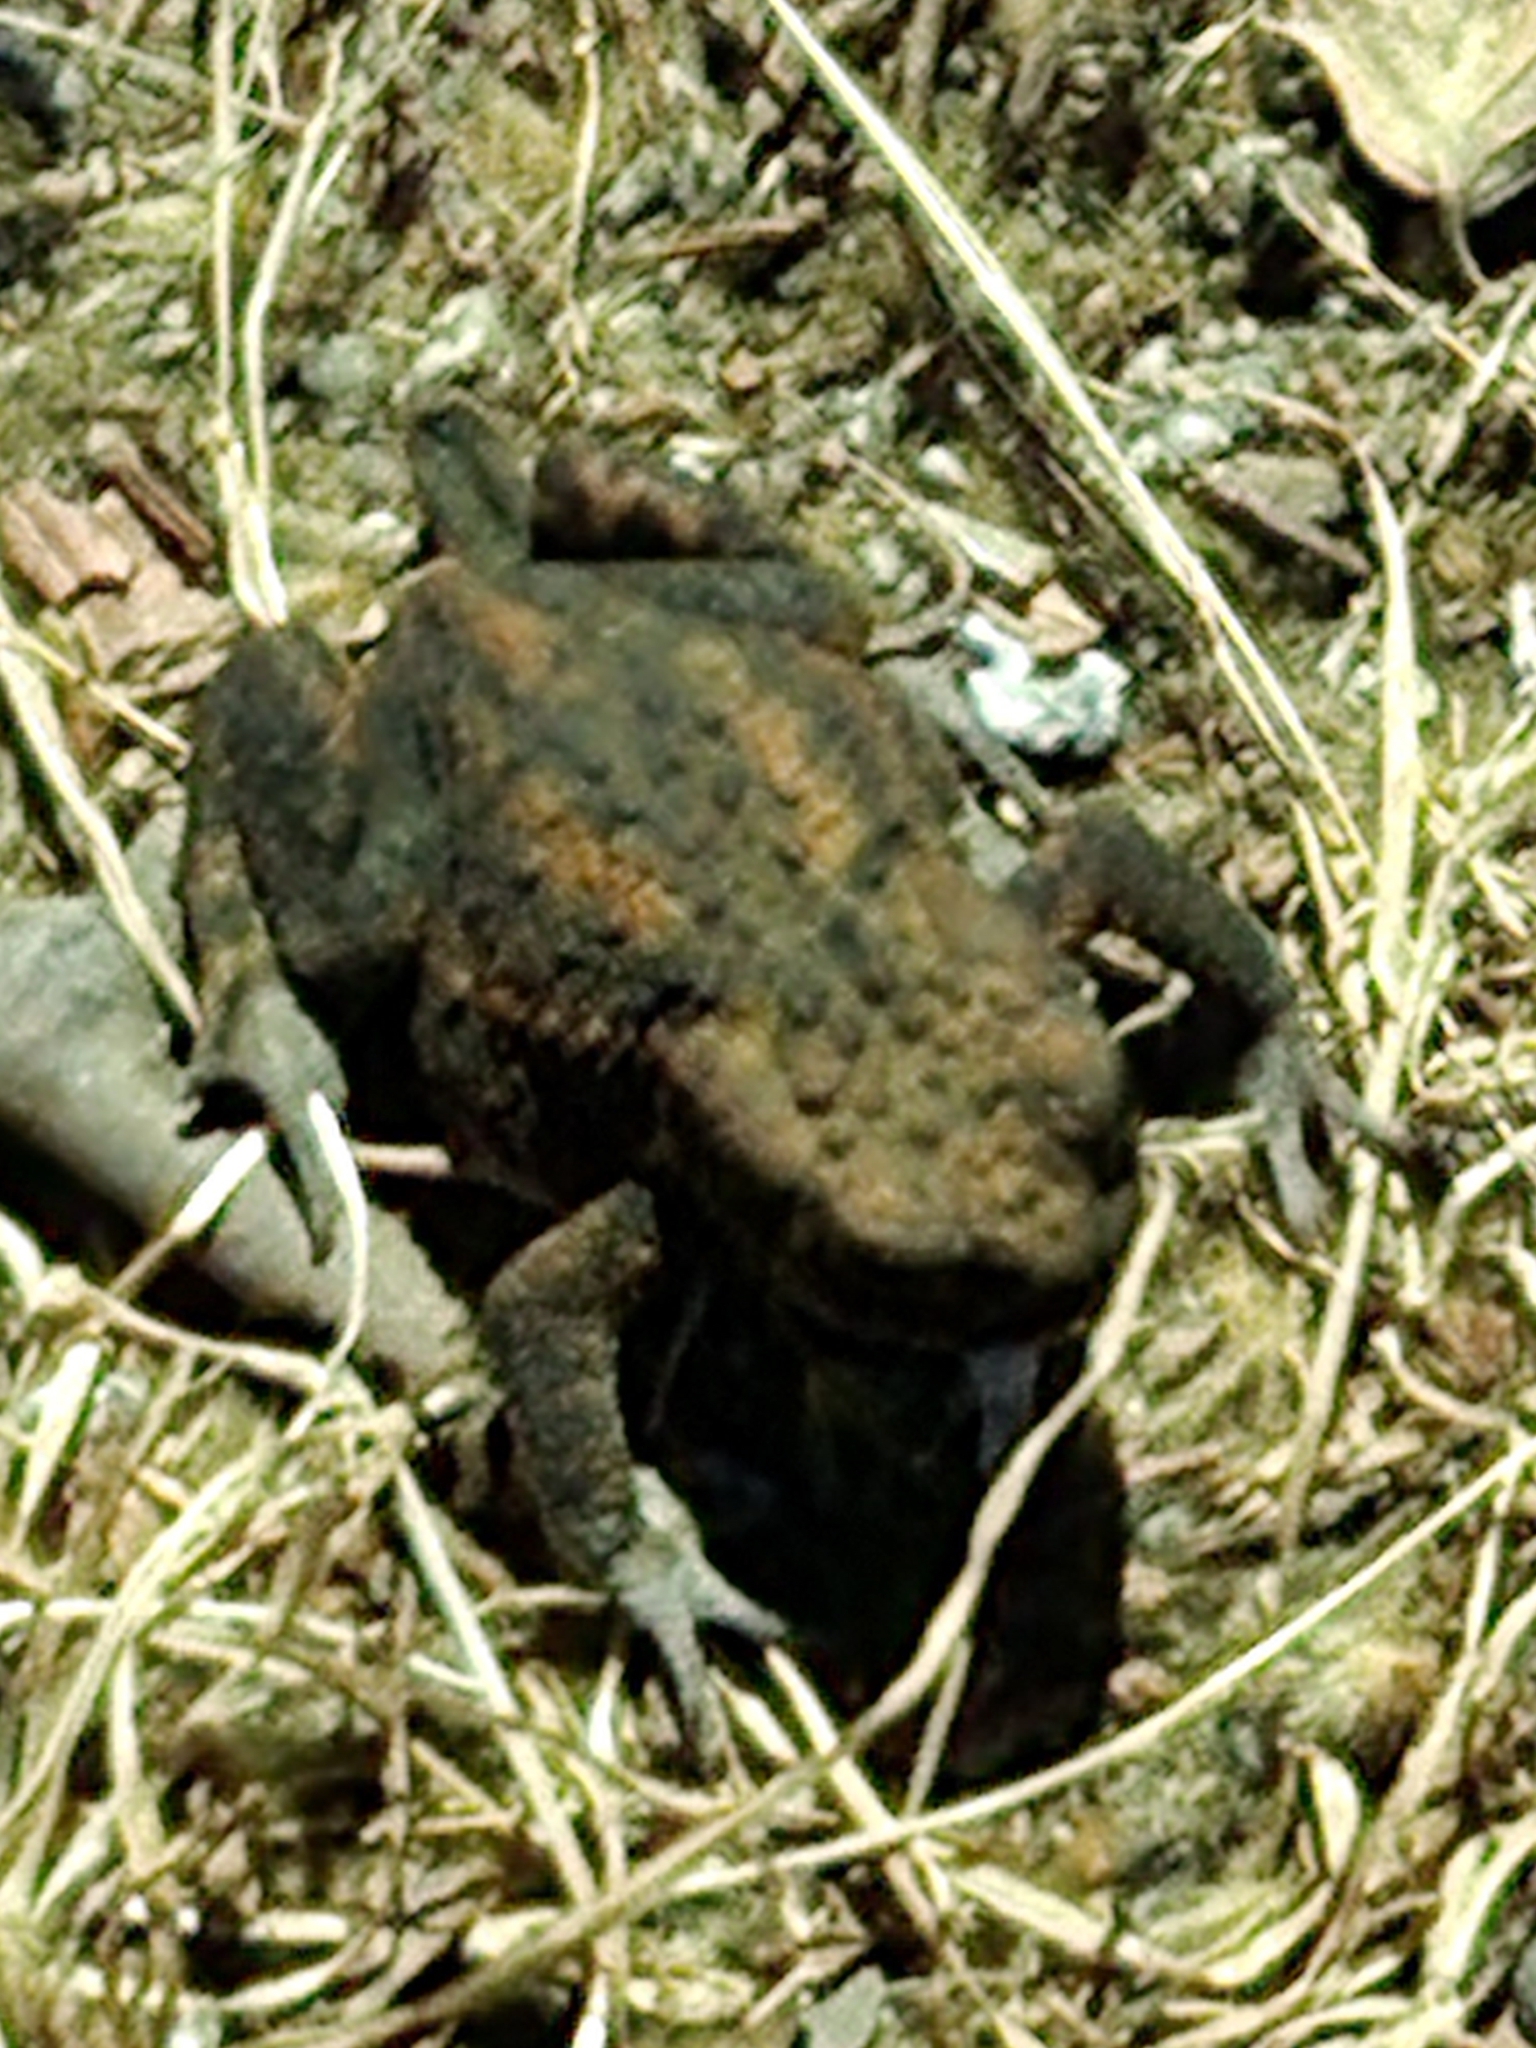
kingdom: Animalia
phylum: Chordata
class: Amphibia
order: Anura
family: Bufonidae
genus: Bufo
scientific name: Bufo bufo
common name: Common toad
